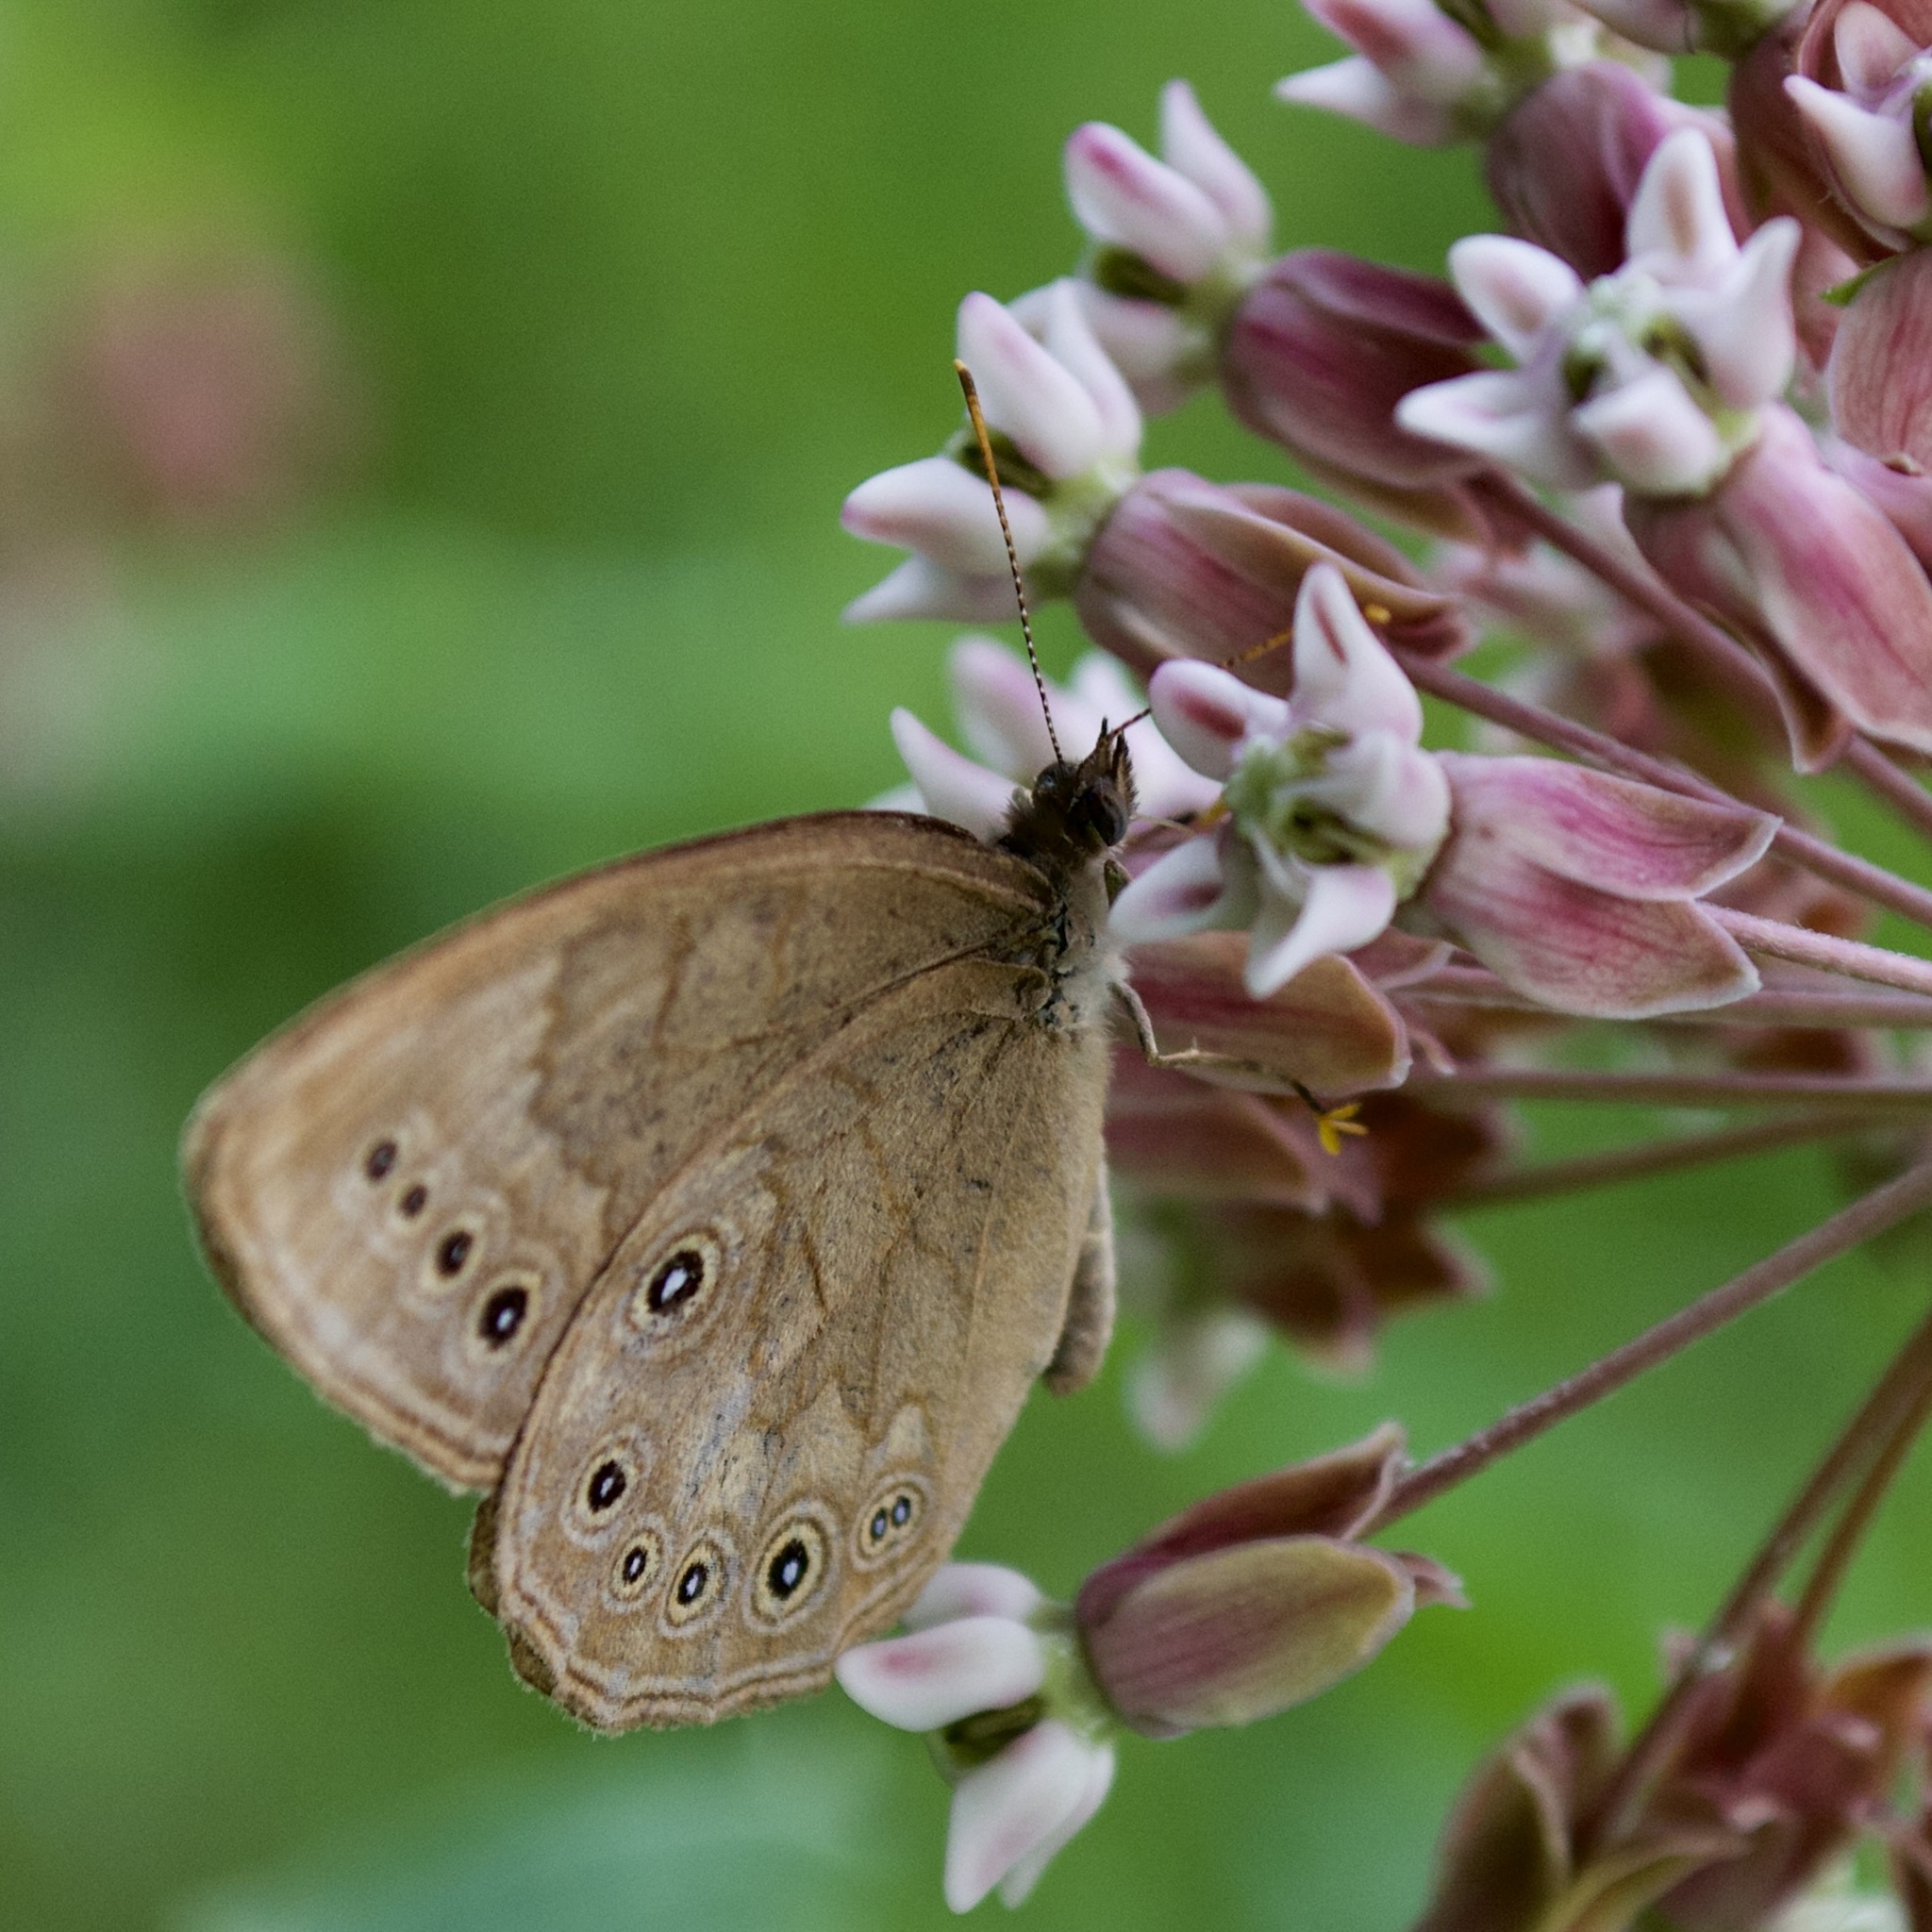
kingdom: Animalia
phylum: Arthropoda
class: Insecta
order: Lepidoptera
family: Nymphalidae
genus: Lethe
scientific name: Lethe eurydice
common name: Eyed brown
